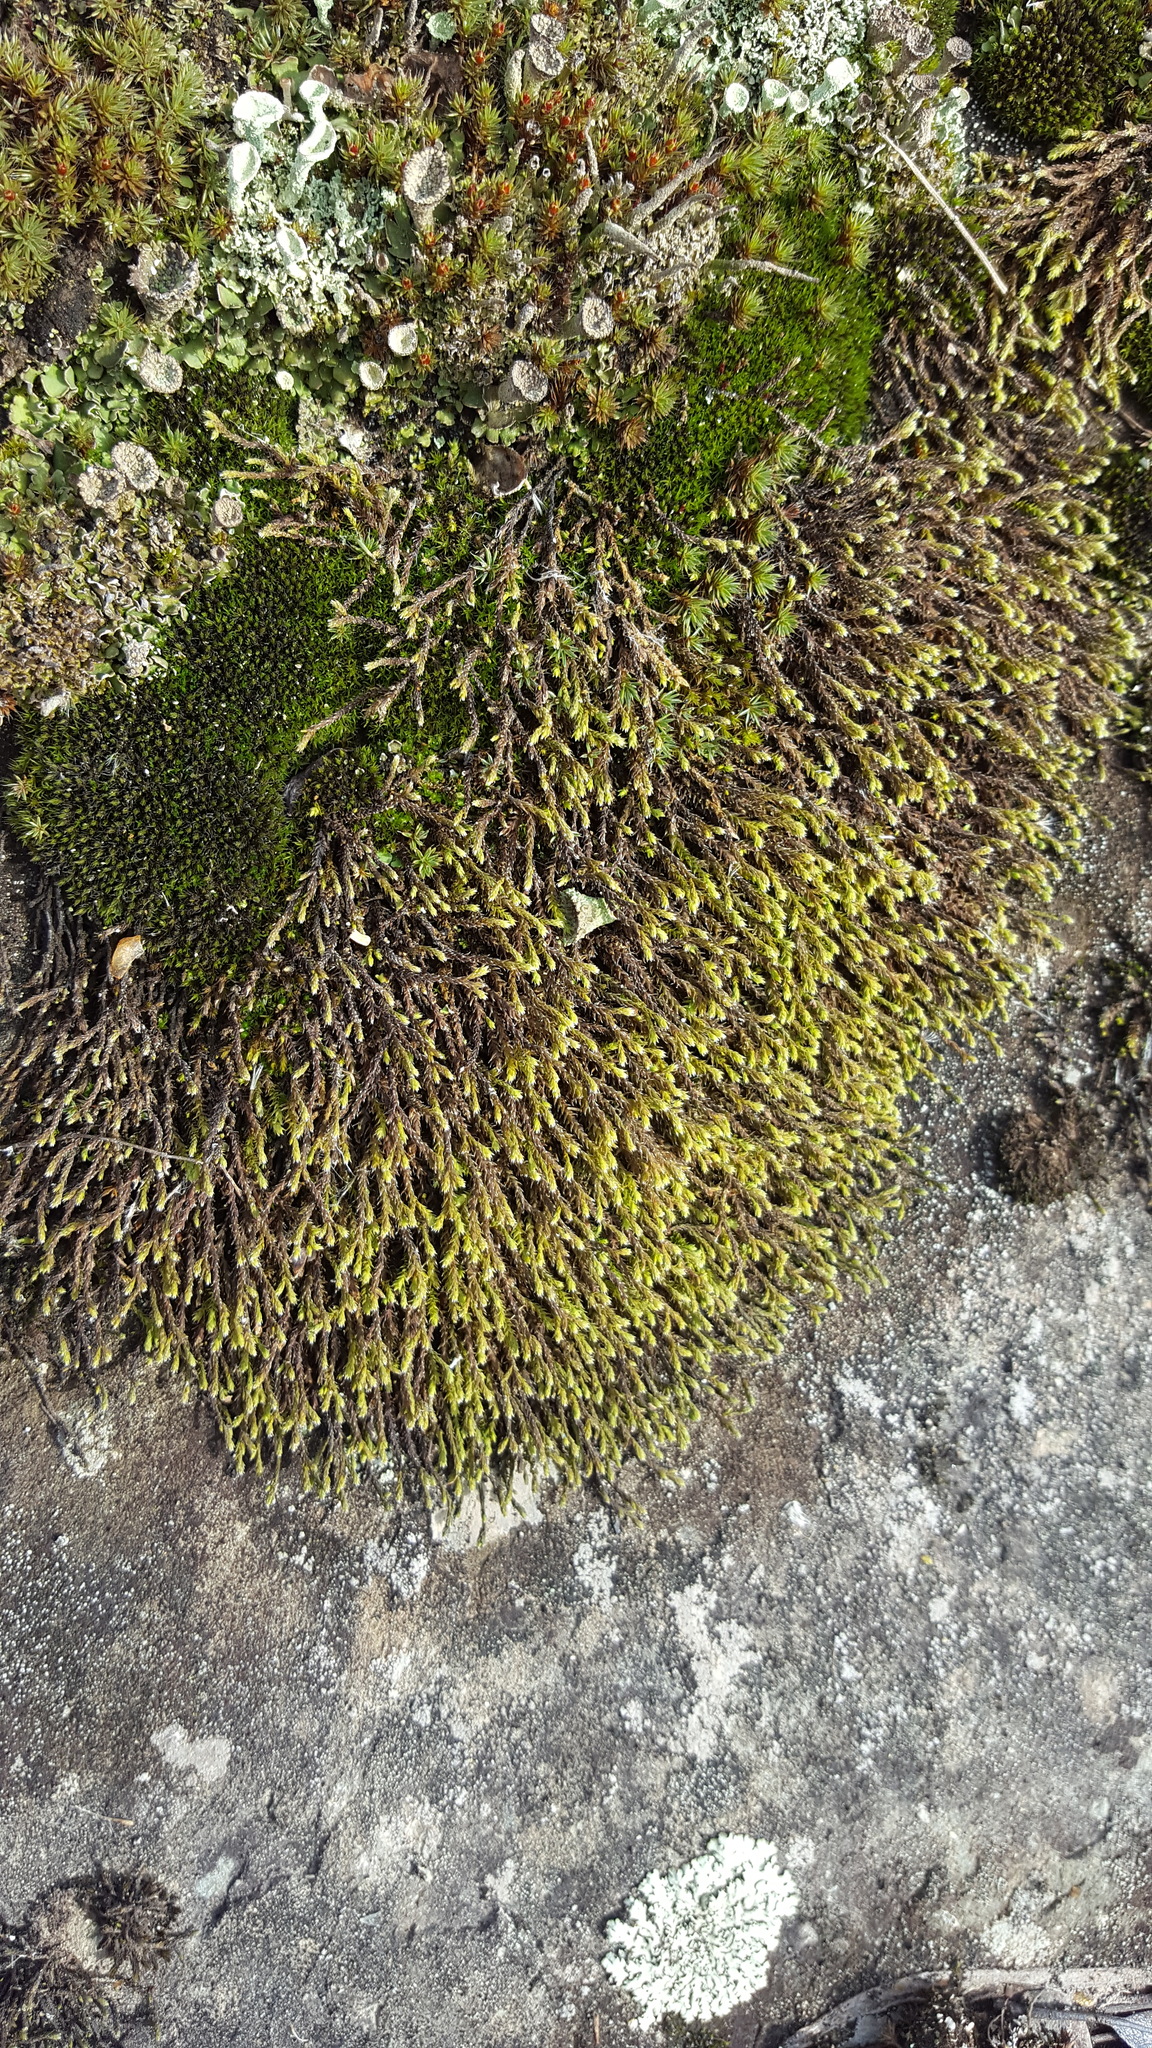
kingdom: Plantae
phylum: Bryophyta
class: Bryopsida
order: Hedwigiales
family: Hedwigiaceae
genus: Hedwigia
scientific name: Hedwigia ciliata
